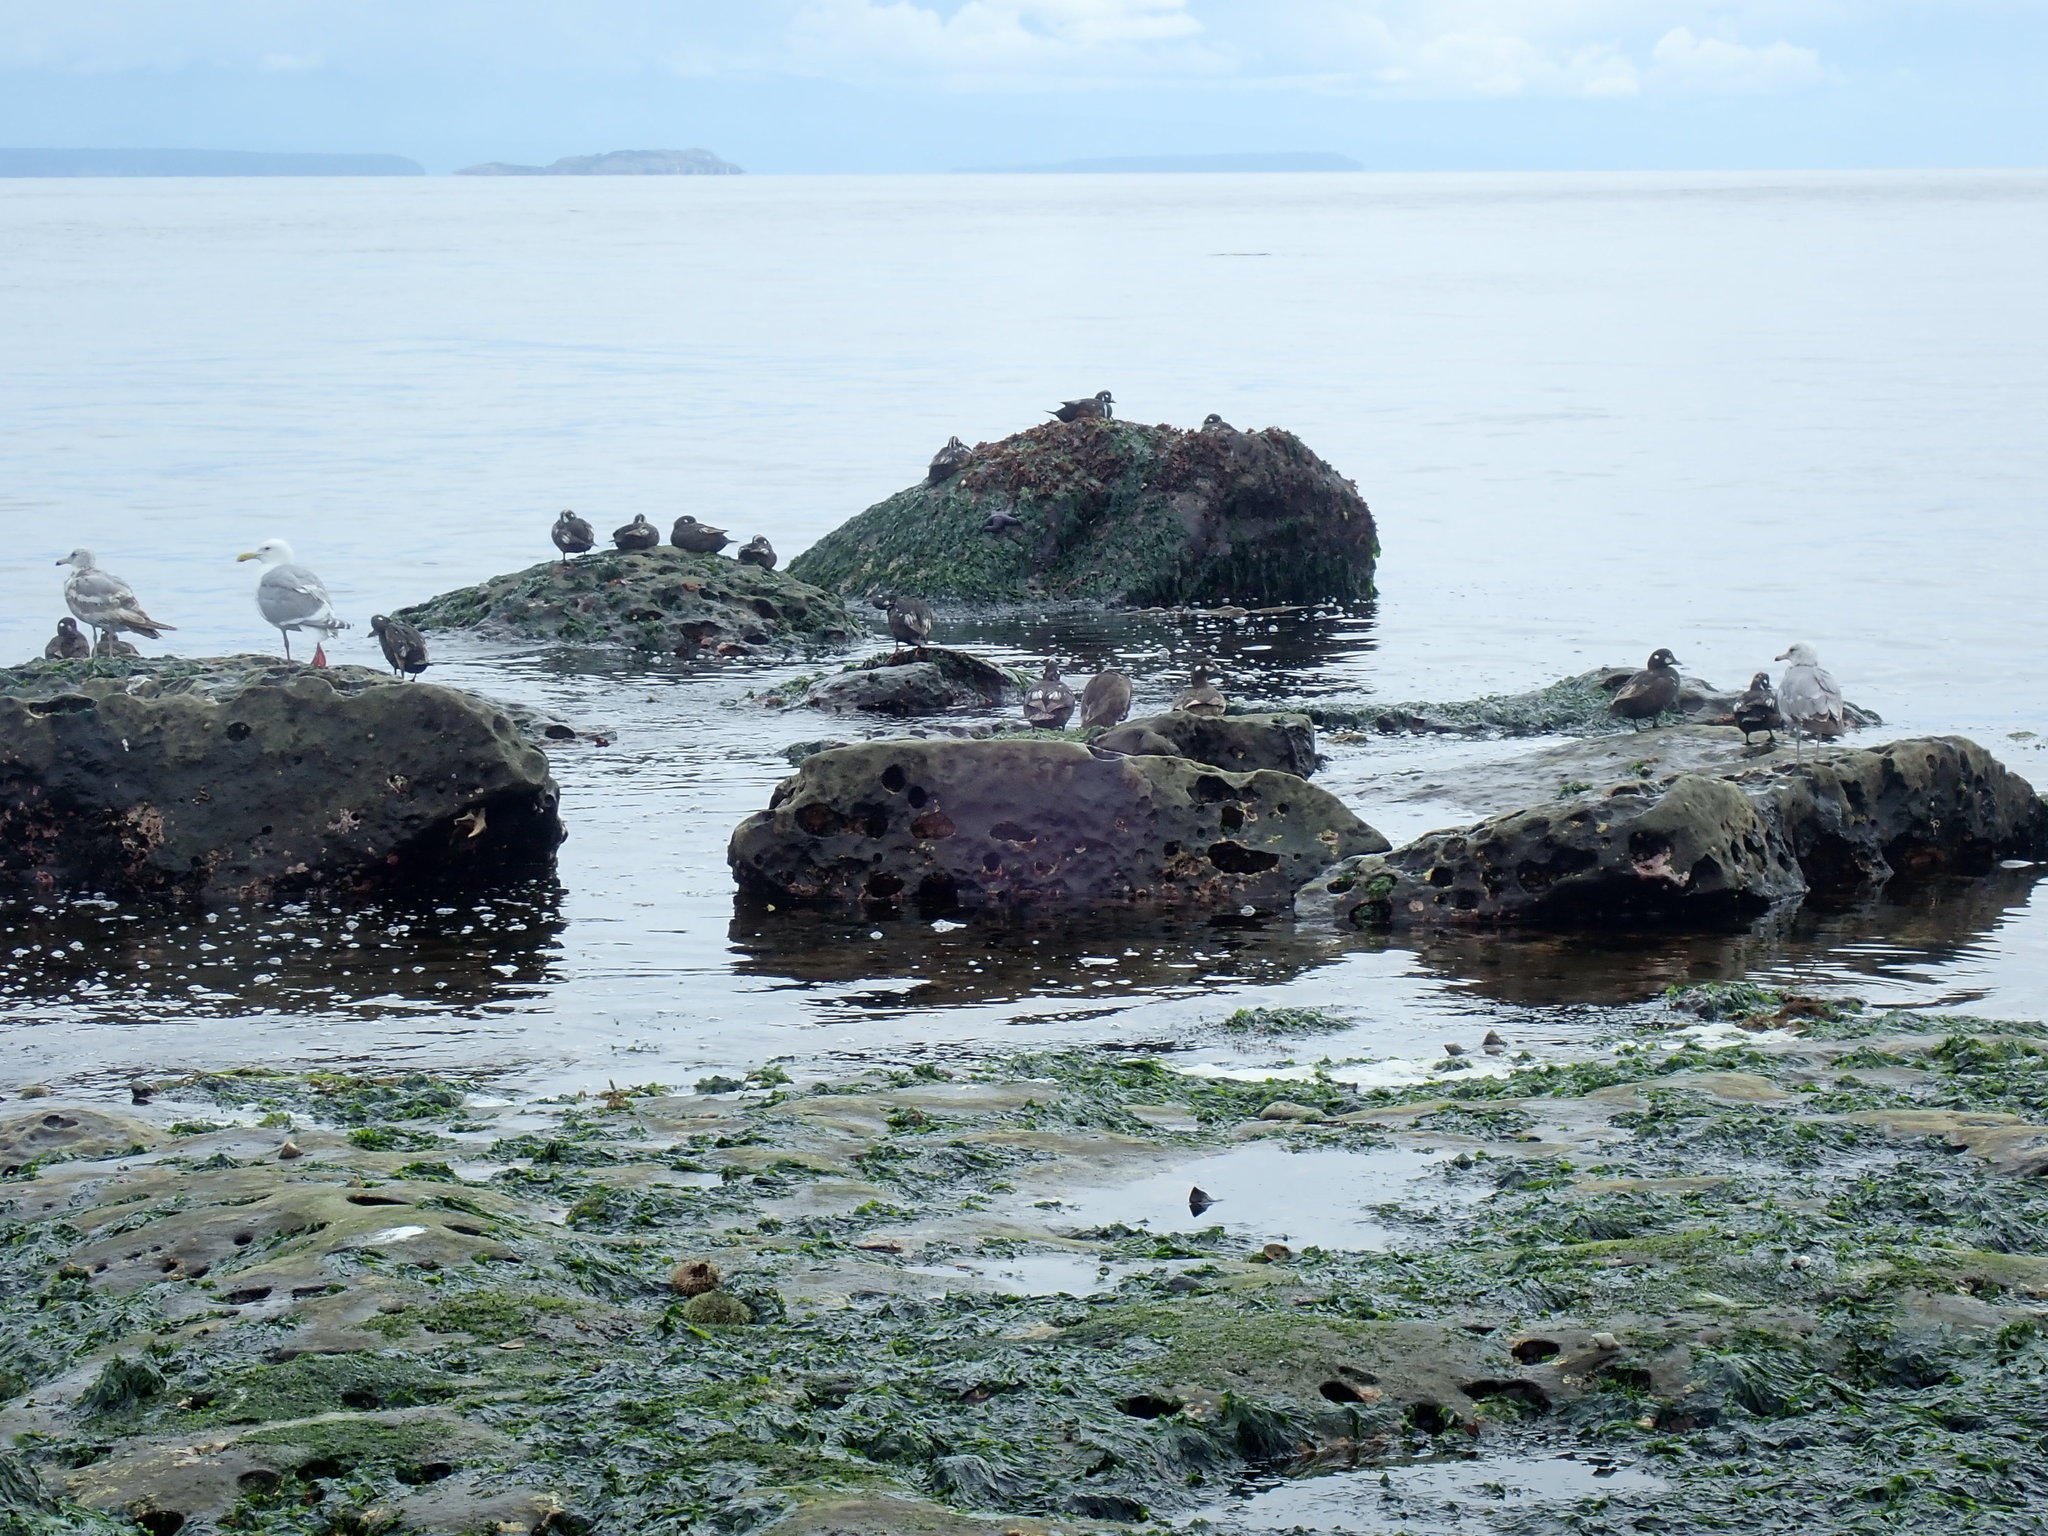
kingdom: Animalia
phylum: Chordata
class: Aves
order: Anseriformes
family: Anatidae
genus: Histrionicus
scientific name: Histrionicus histrionicus
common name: Harlequin duck
